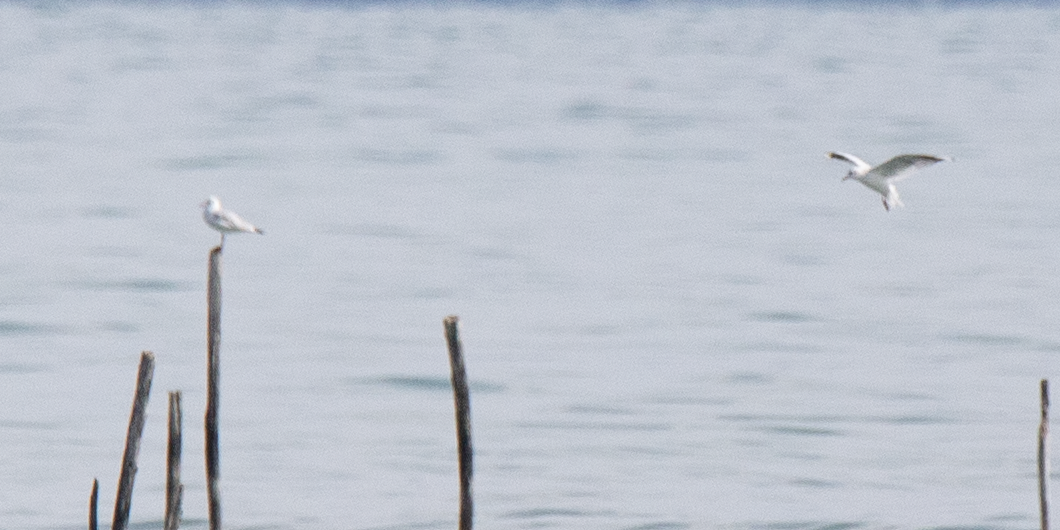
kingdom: Animalia
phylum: Chordata
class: Aves
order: Charadriiformes
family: Laridae
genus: Chroicocephalus
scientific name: Chroicocephalus ridibundus
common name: Black-headed gull
